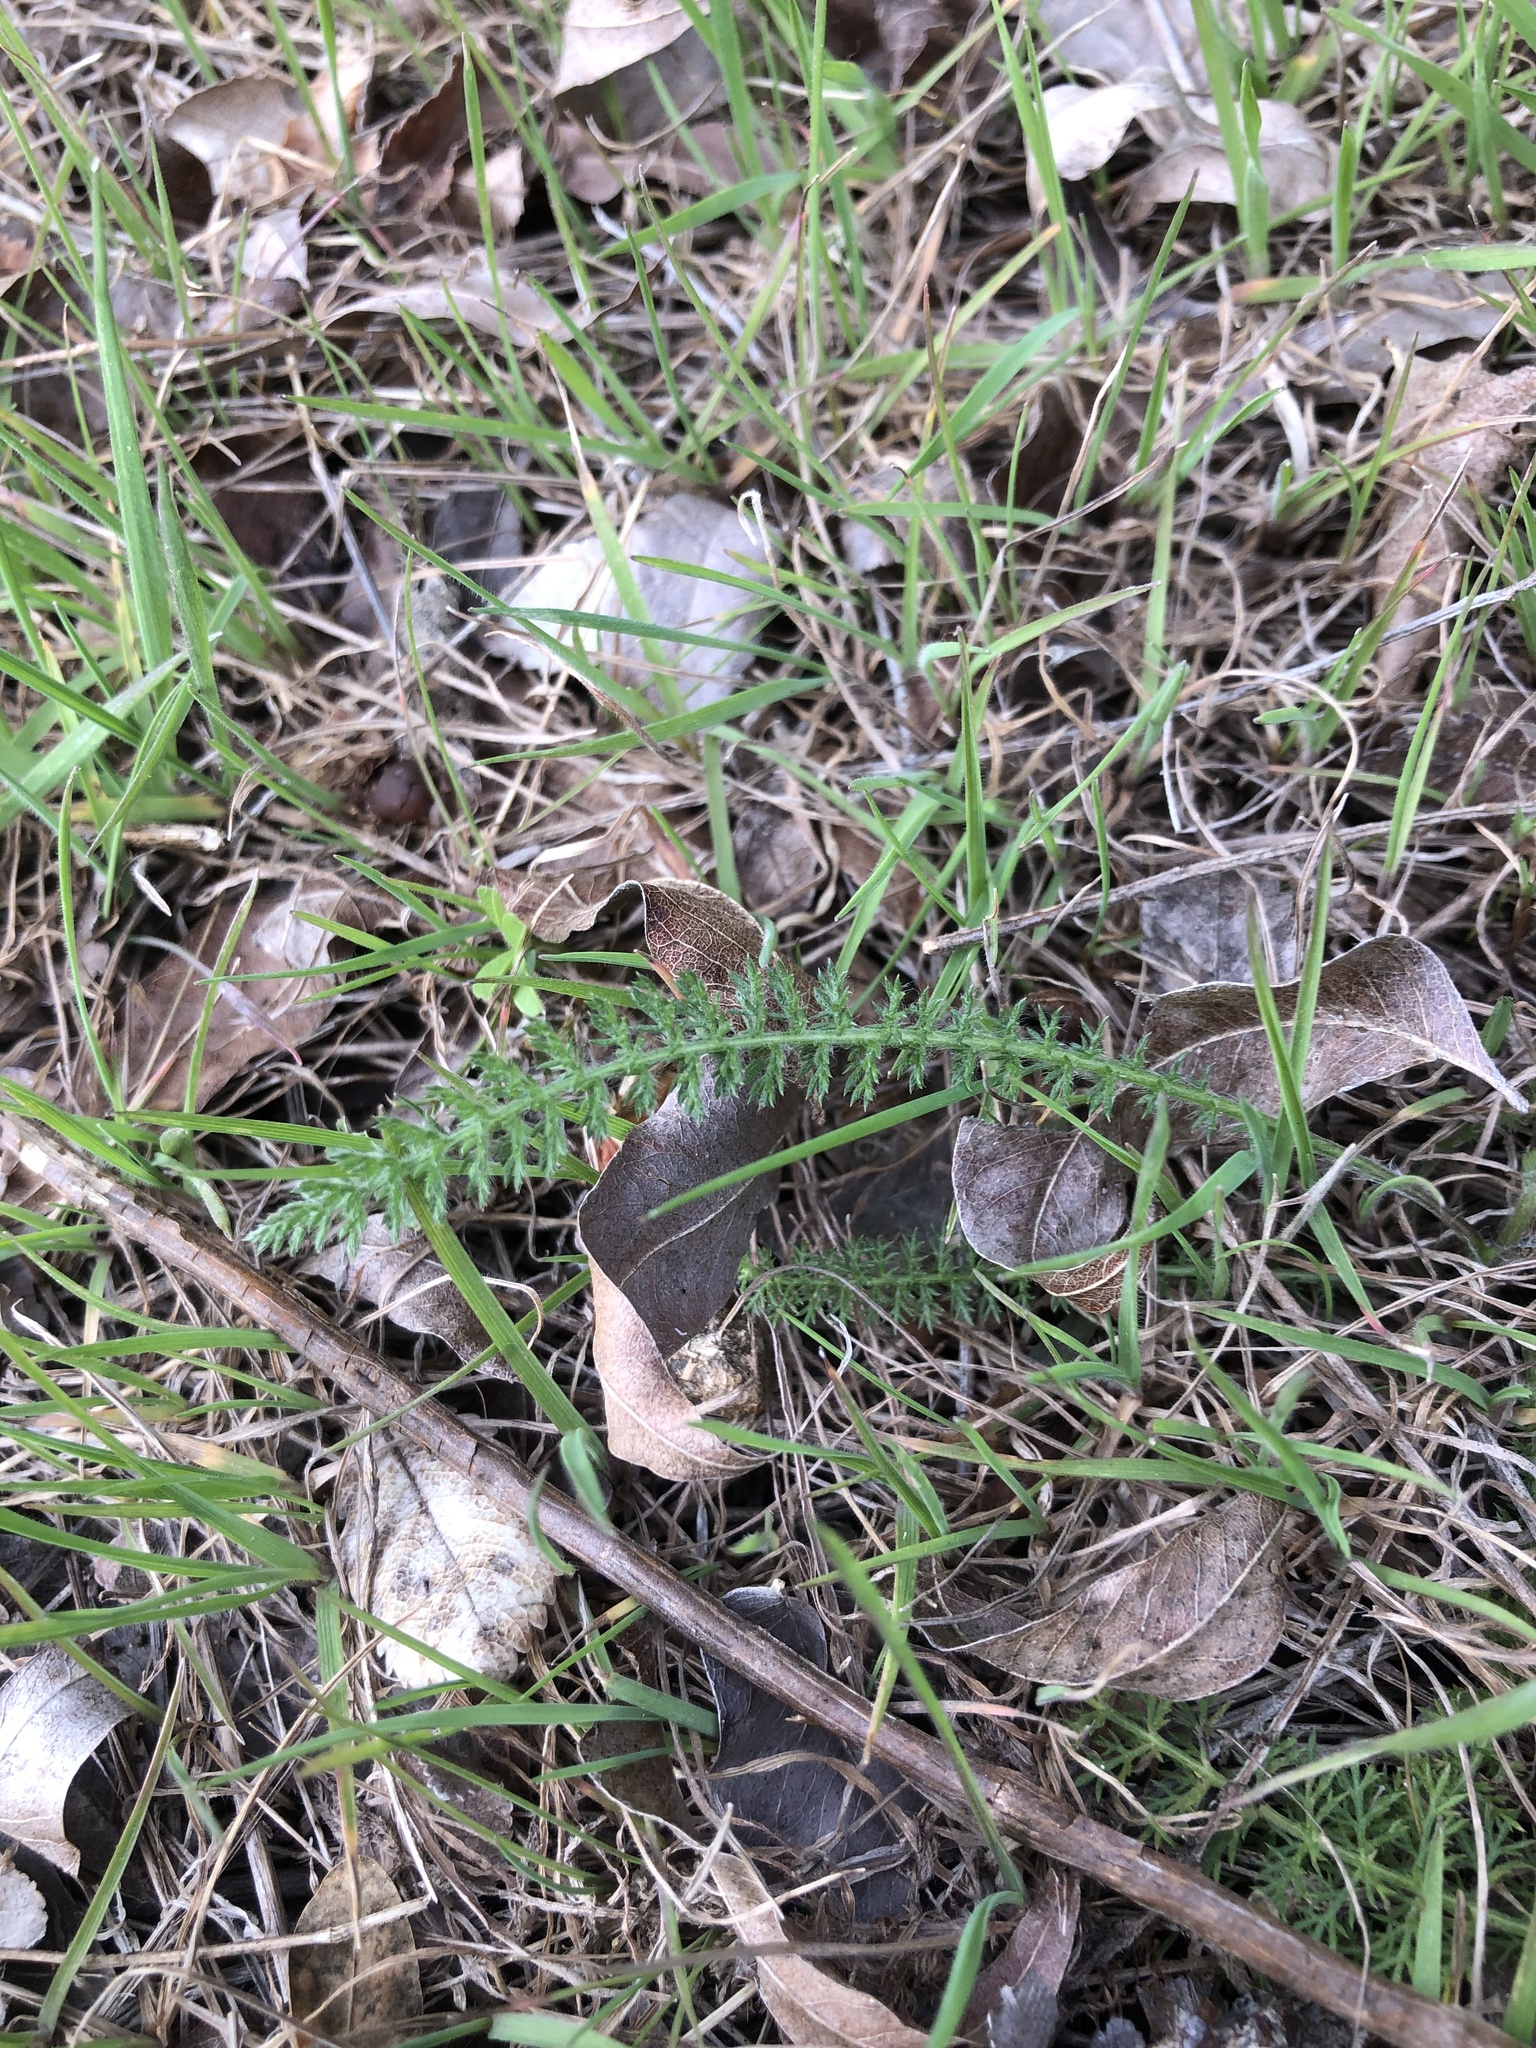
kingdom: Plantae
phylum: Tracheophyta
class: Magnoliopsida
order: Asterales
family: Asteraceae
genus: Achillea
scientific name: Achillea millefolium
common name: Yarrow
